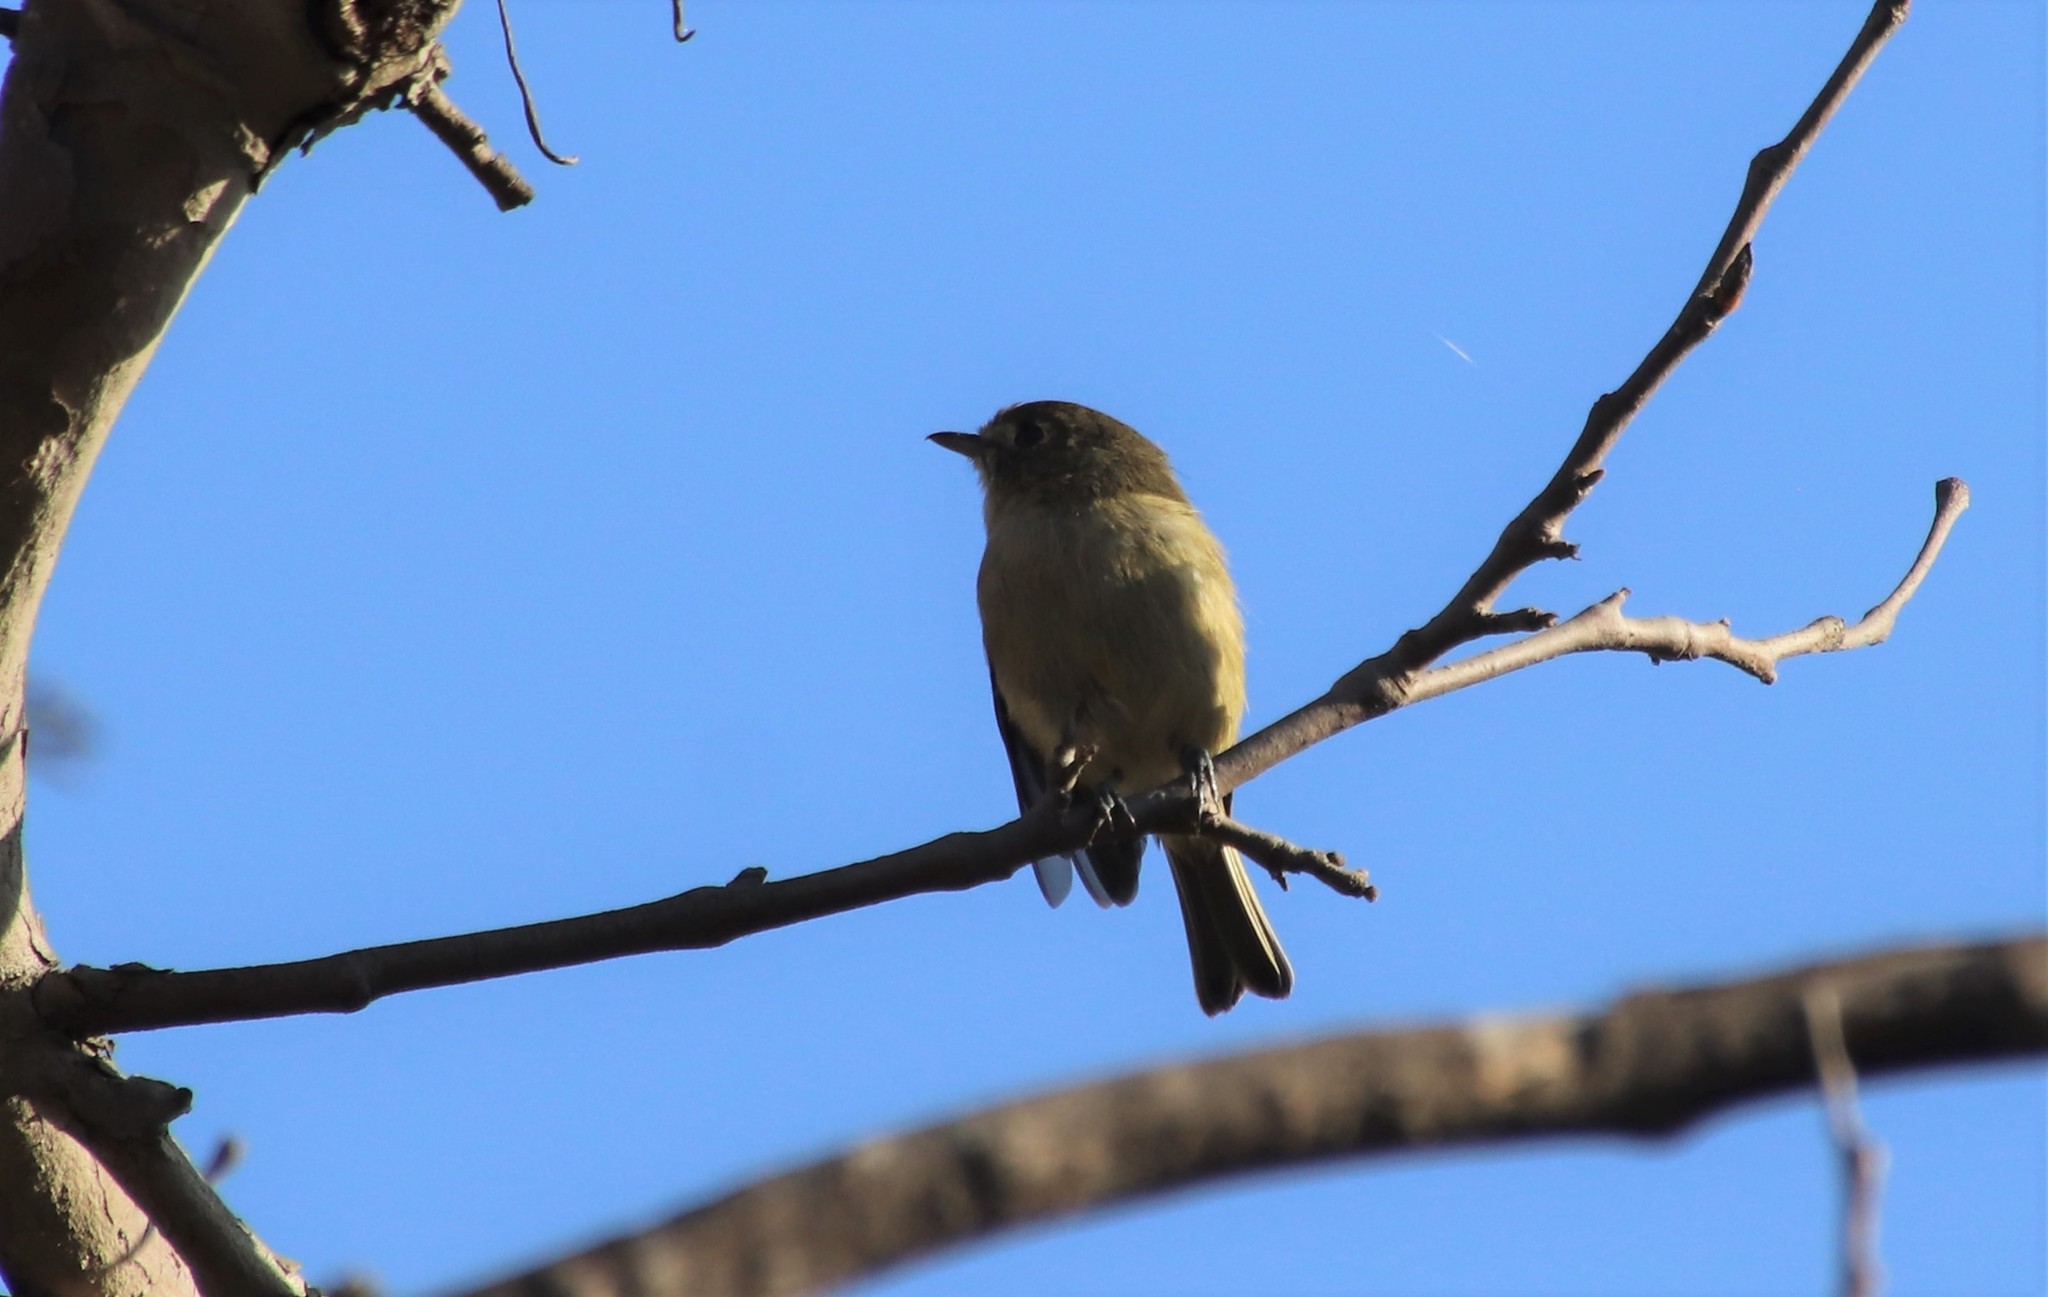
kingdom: Animalia
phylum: Chordata
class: Aves
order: Passeriformes
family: Vireonidae
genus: Vireo
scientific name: Vireo huttoni
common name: Hutton's vireo
